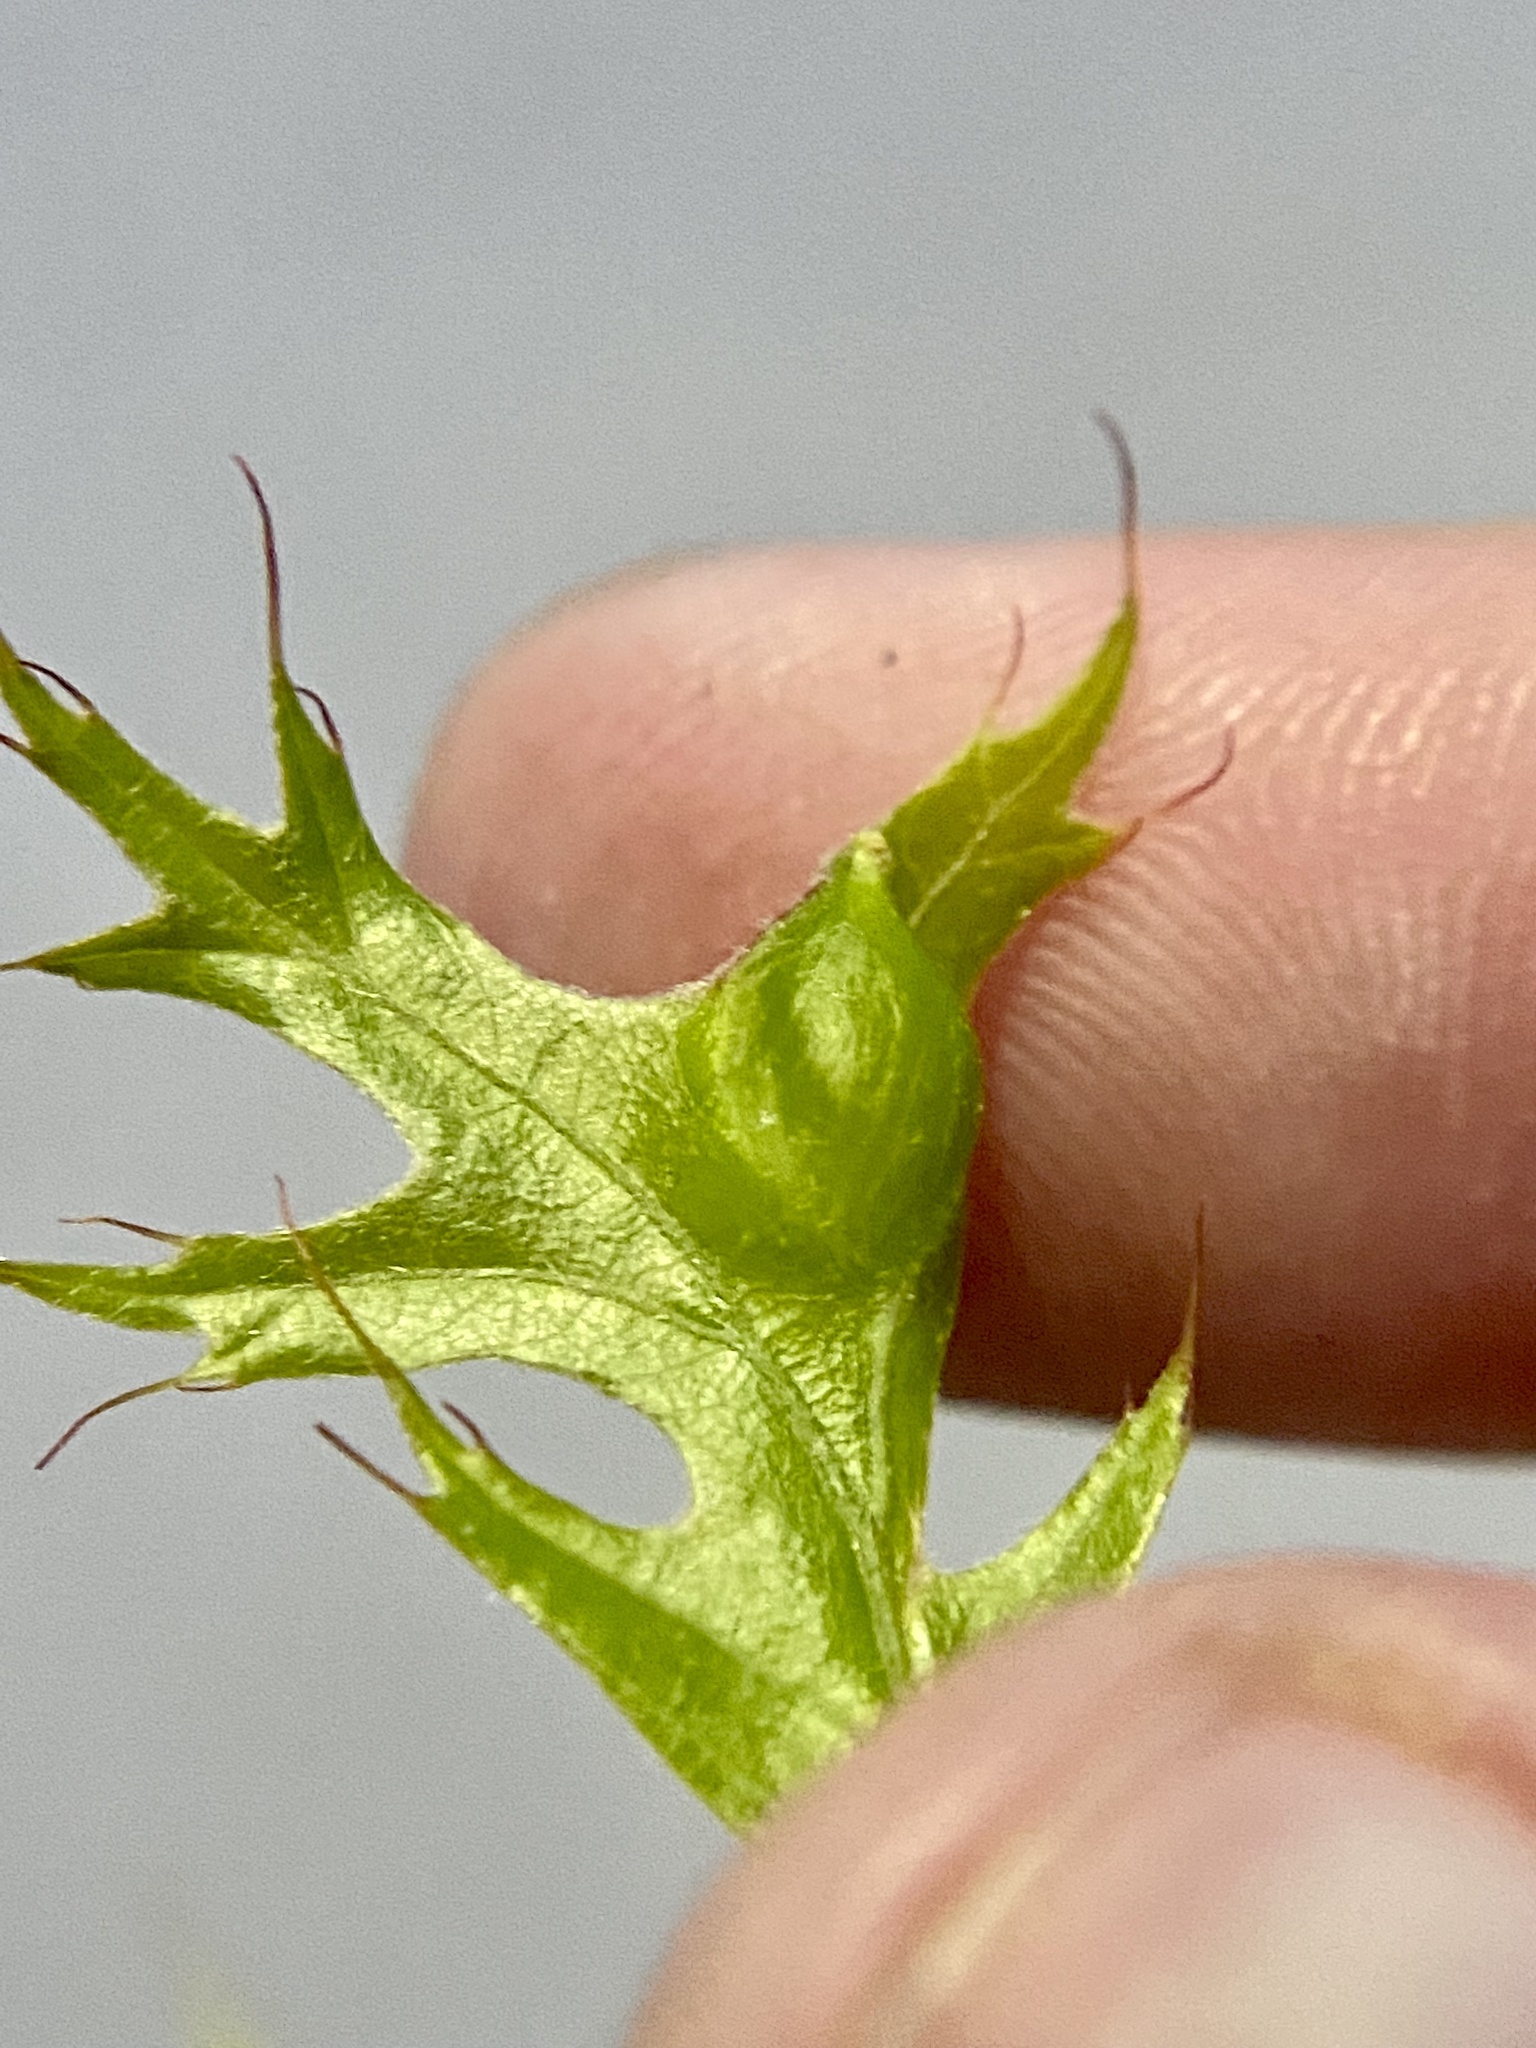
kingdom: Animalia
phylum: Arthropoda
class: Insecta
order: Hymenoptera
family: Cynipidae
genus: Dryocosmus
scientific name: Dryocosmus
